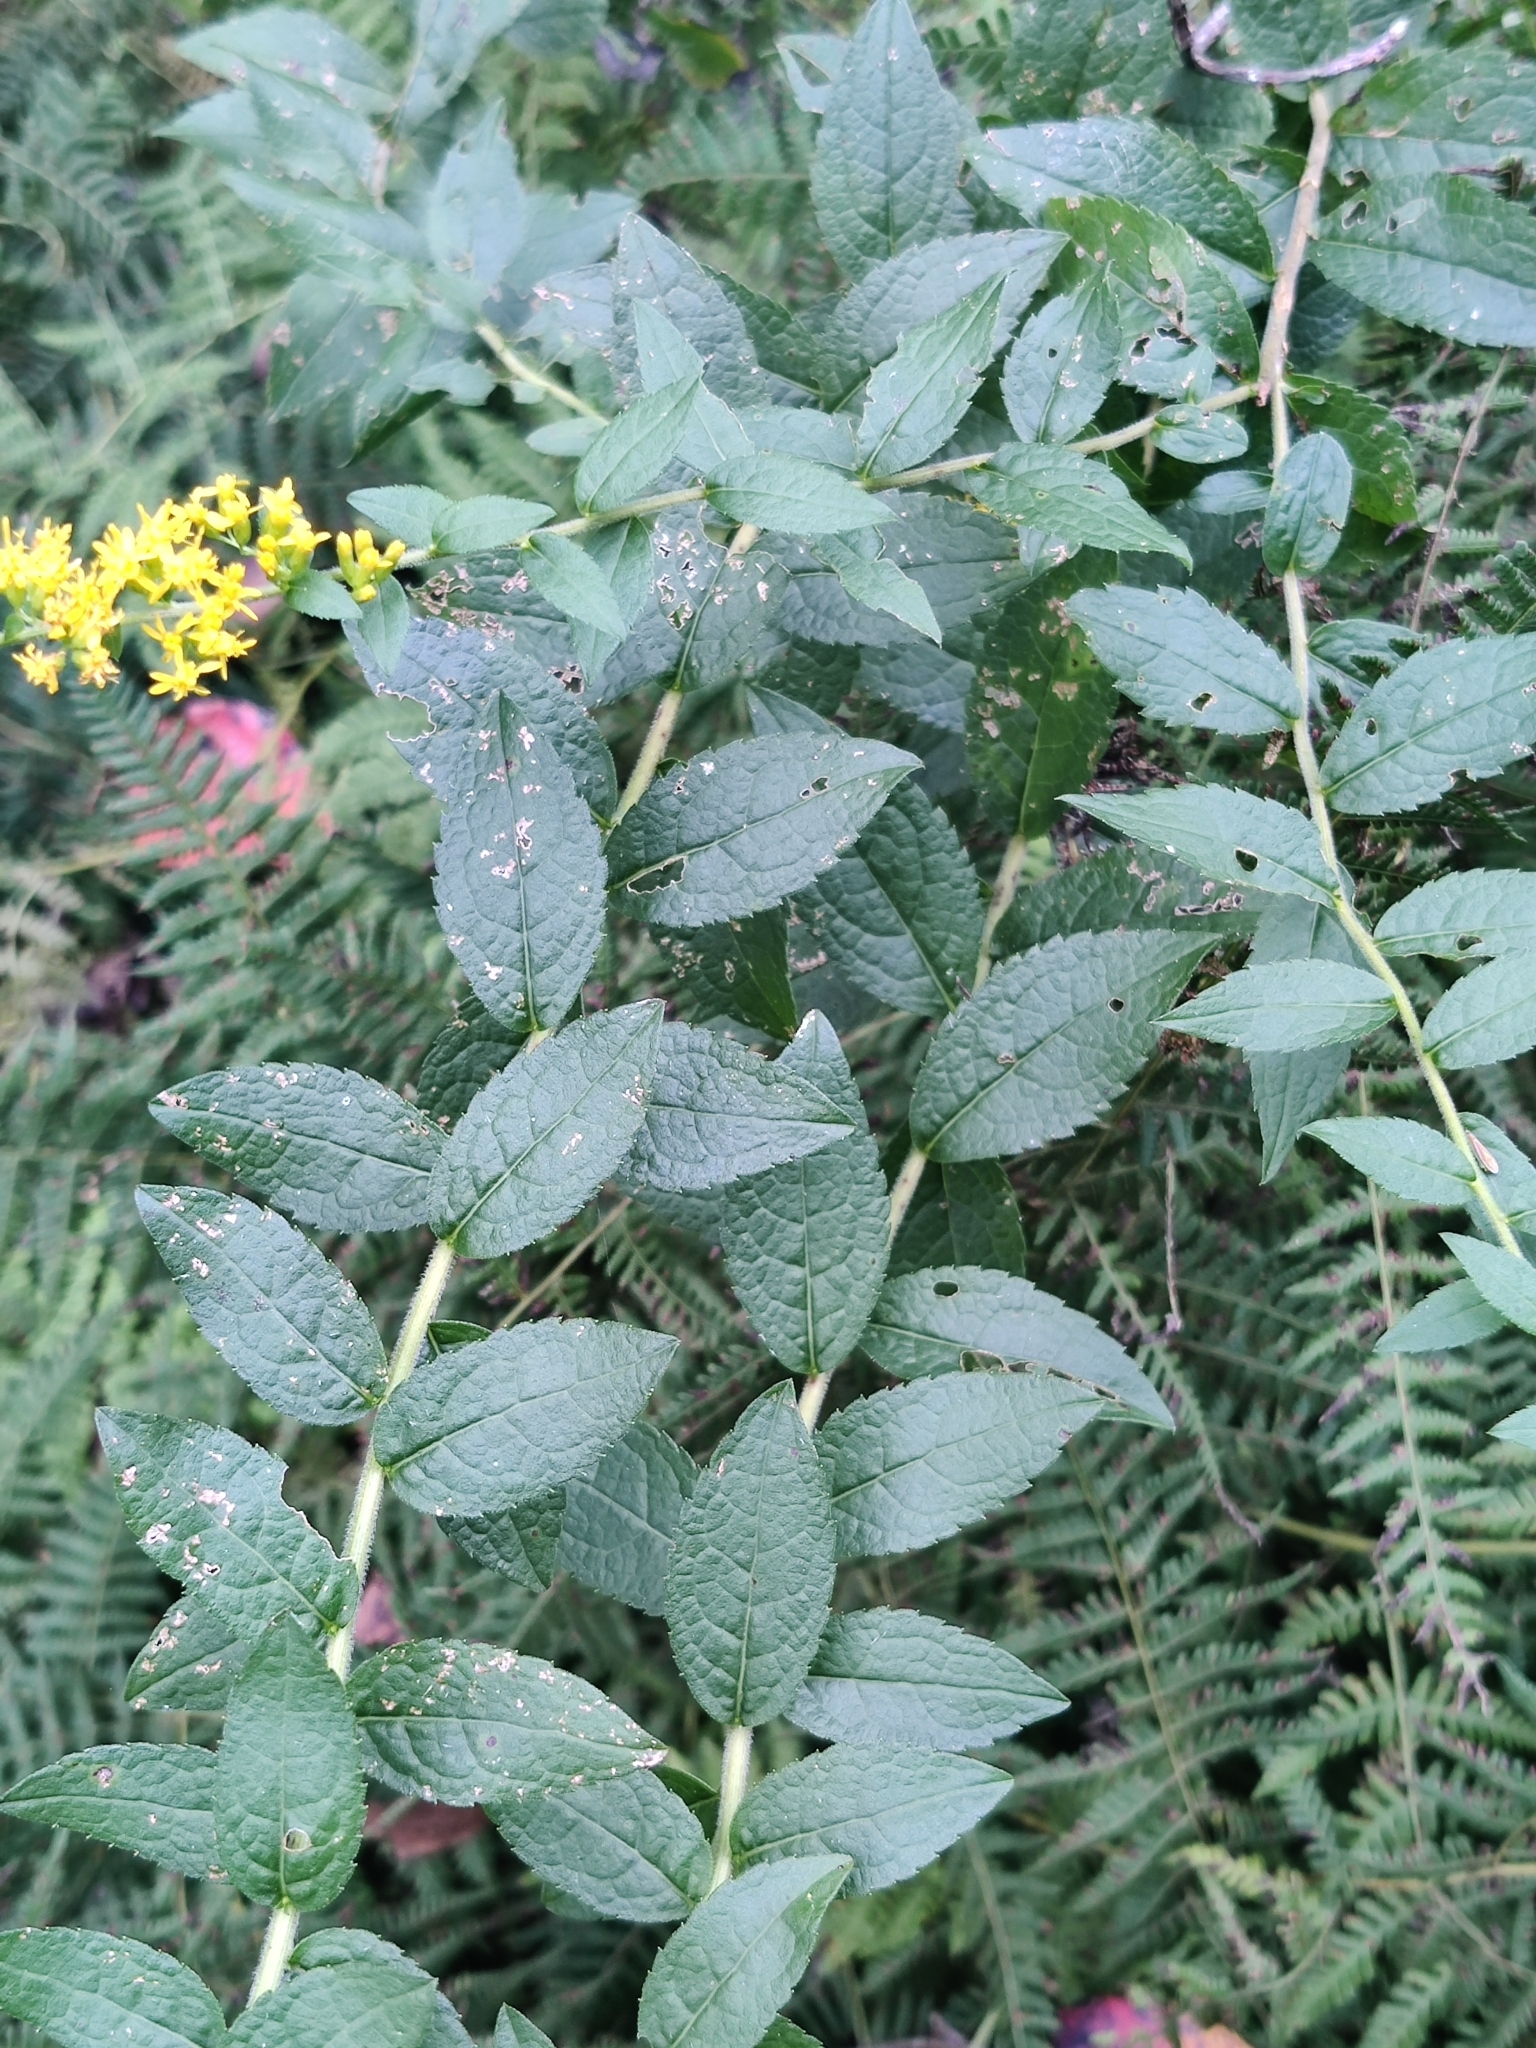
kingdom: Plantae
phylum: Tracheophyta
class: Magnoliopsida
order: Asterales
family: Asteraceae
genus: Solidago
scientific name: Solidago rugosa
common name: Rough-stemmed goldenrod
